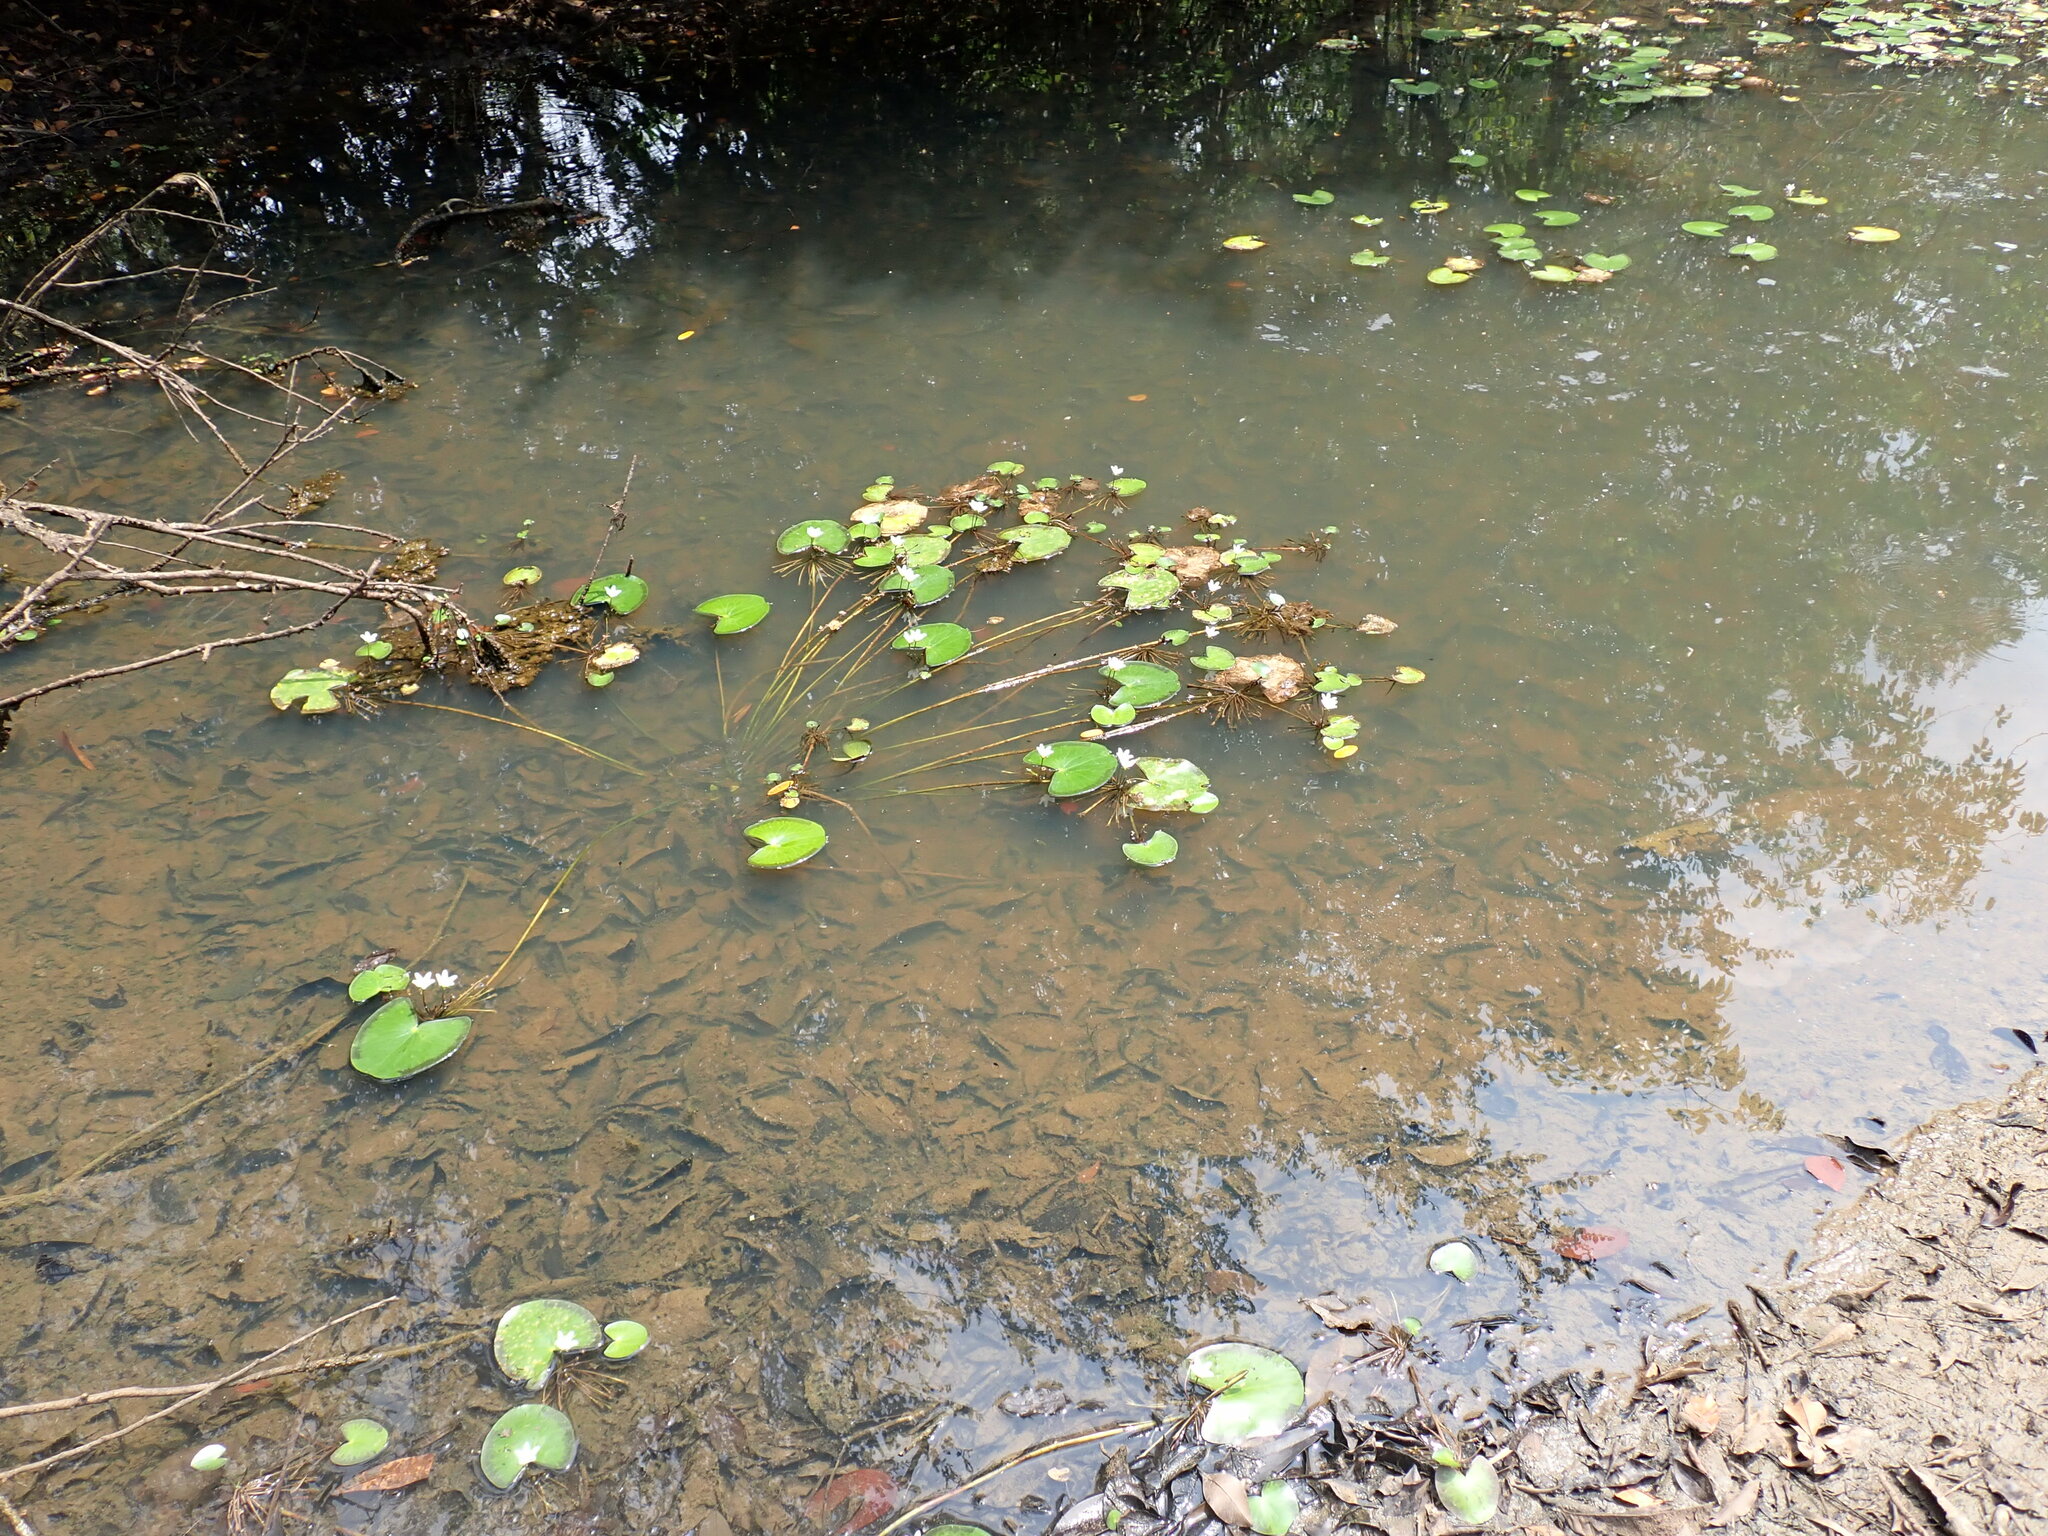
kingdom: Plantae
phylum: Tracheophyta
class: Magnoliopsida
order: Asterales
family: Menyanthaceae
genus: Nymphoides
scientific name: Nymphoides humboldtiana
